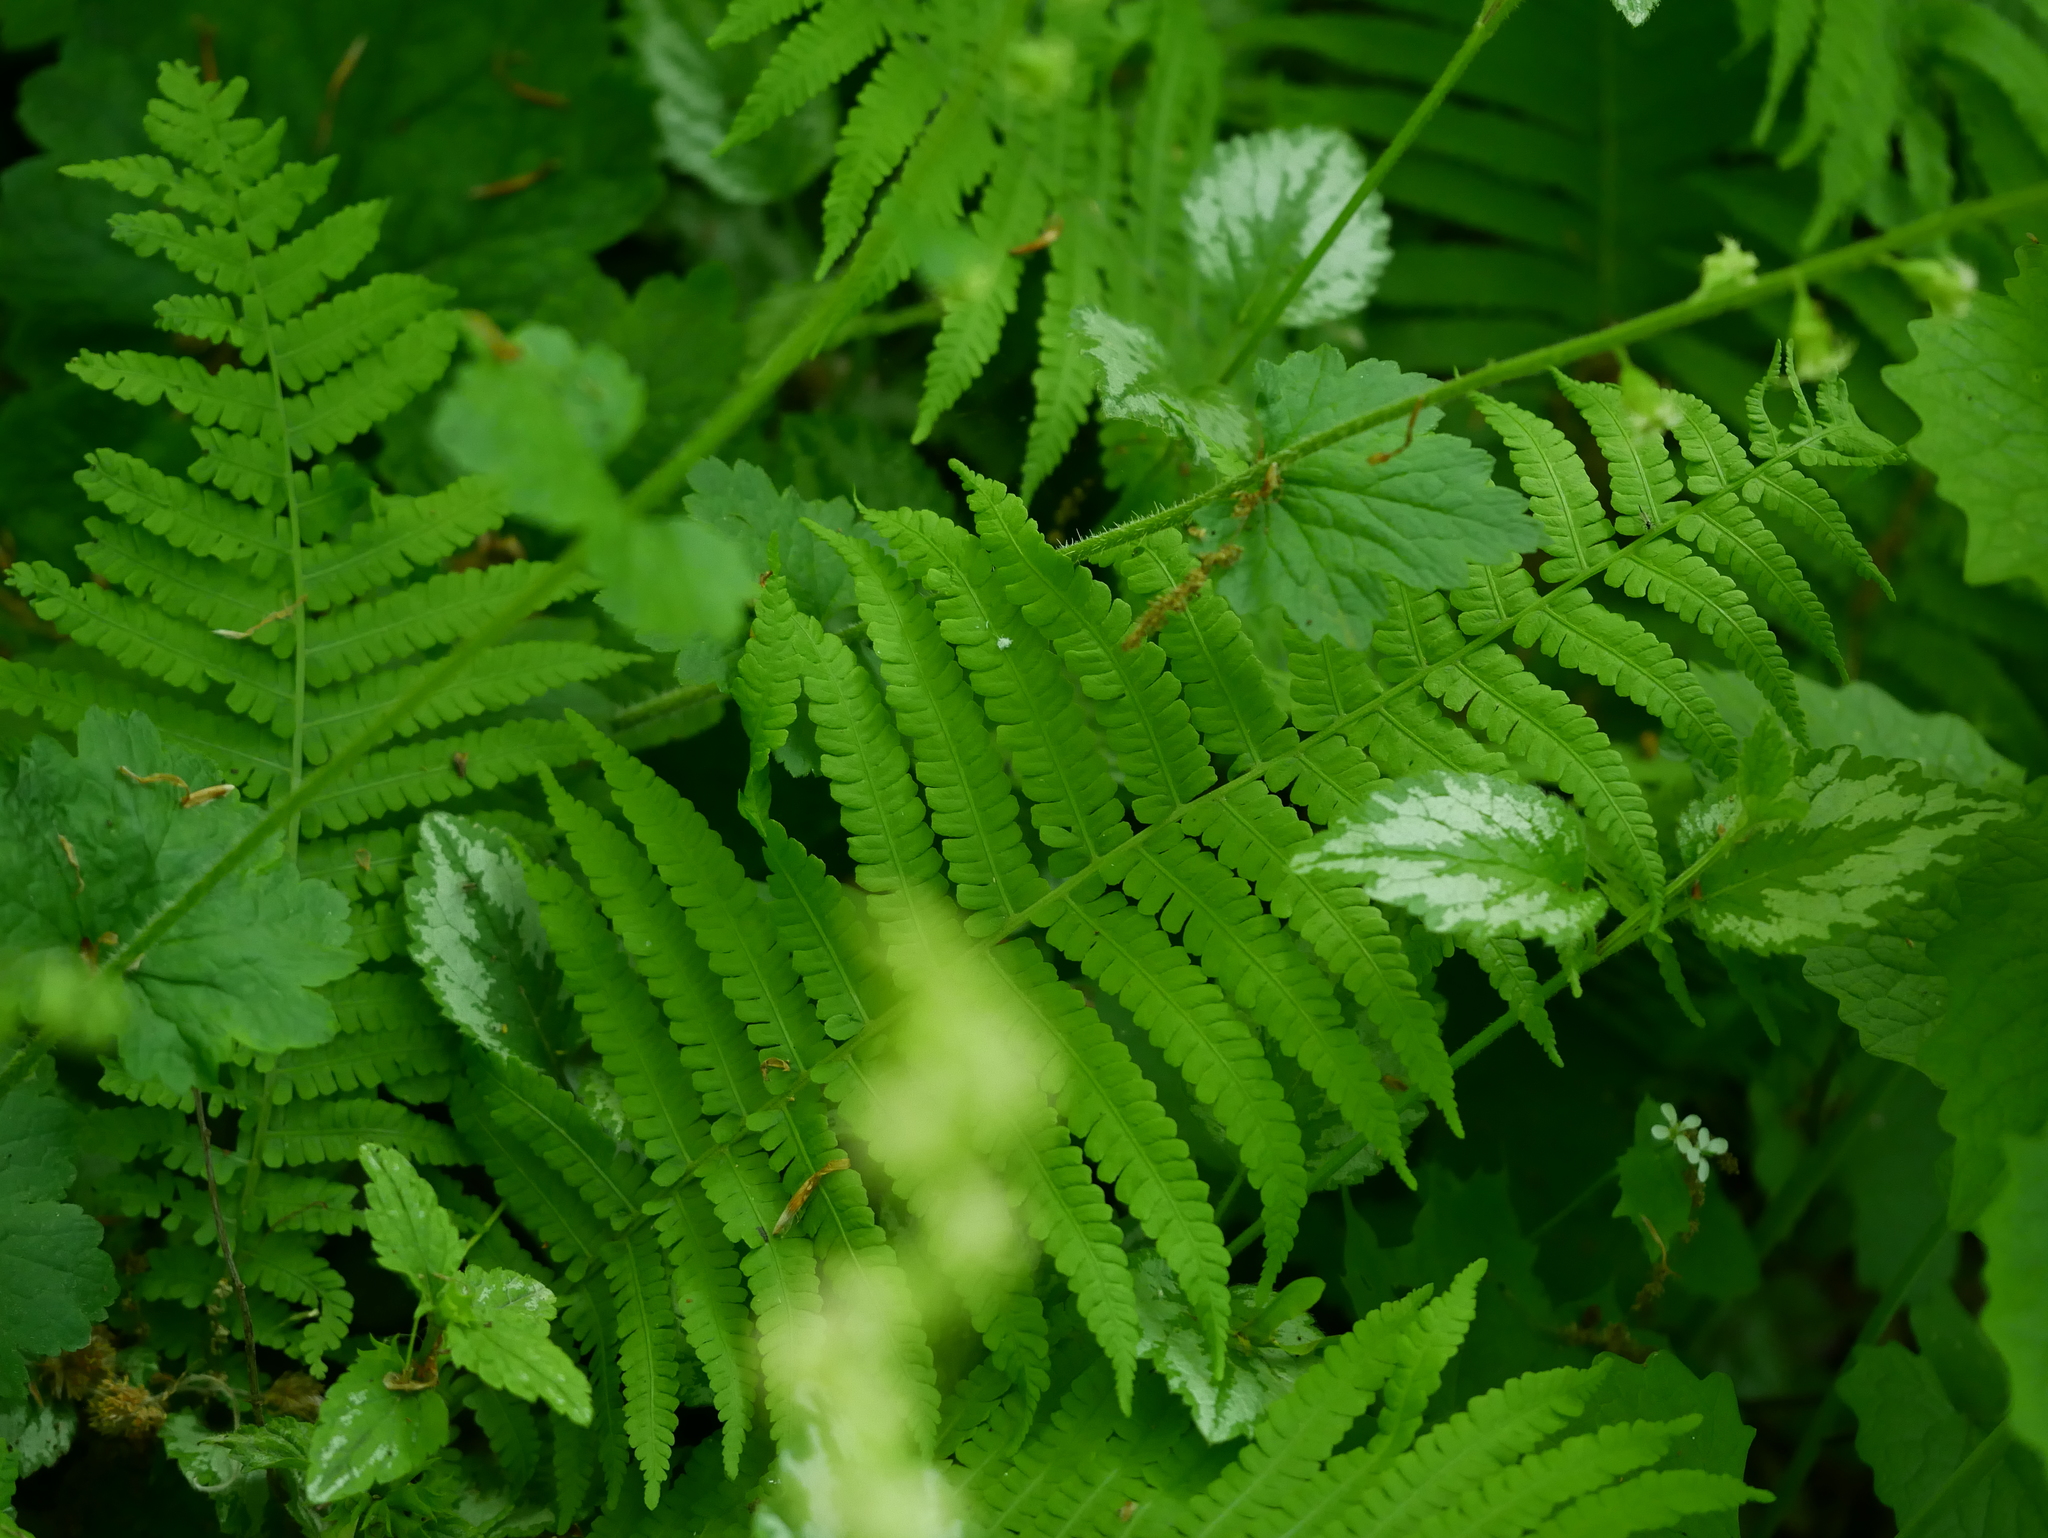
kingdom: Plantae
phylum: Tracheophyta
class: Polypodiopsida
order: Polypodiales
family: Onocleaceae
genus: Matteuccia
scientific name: Matteuccia struthiopteris
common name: Ostrich fern
